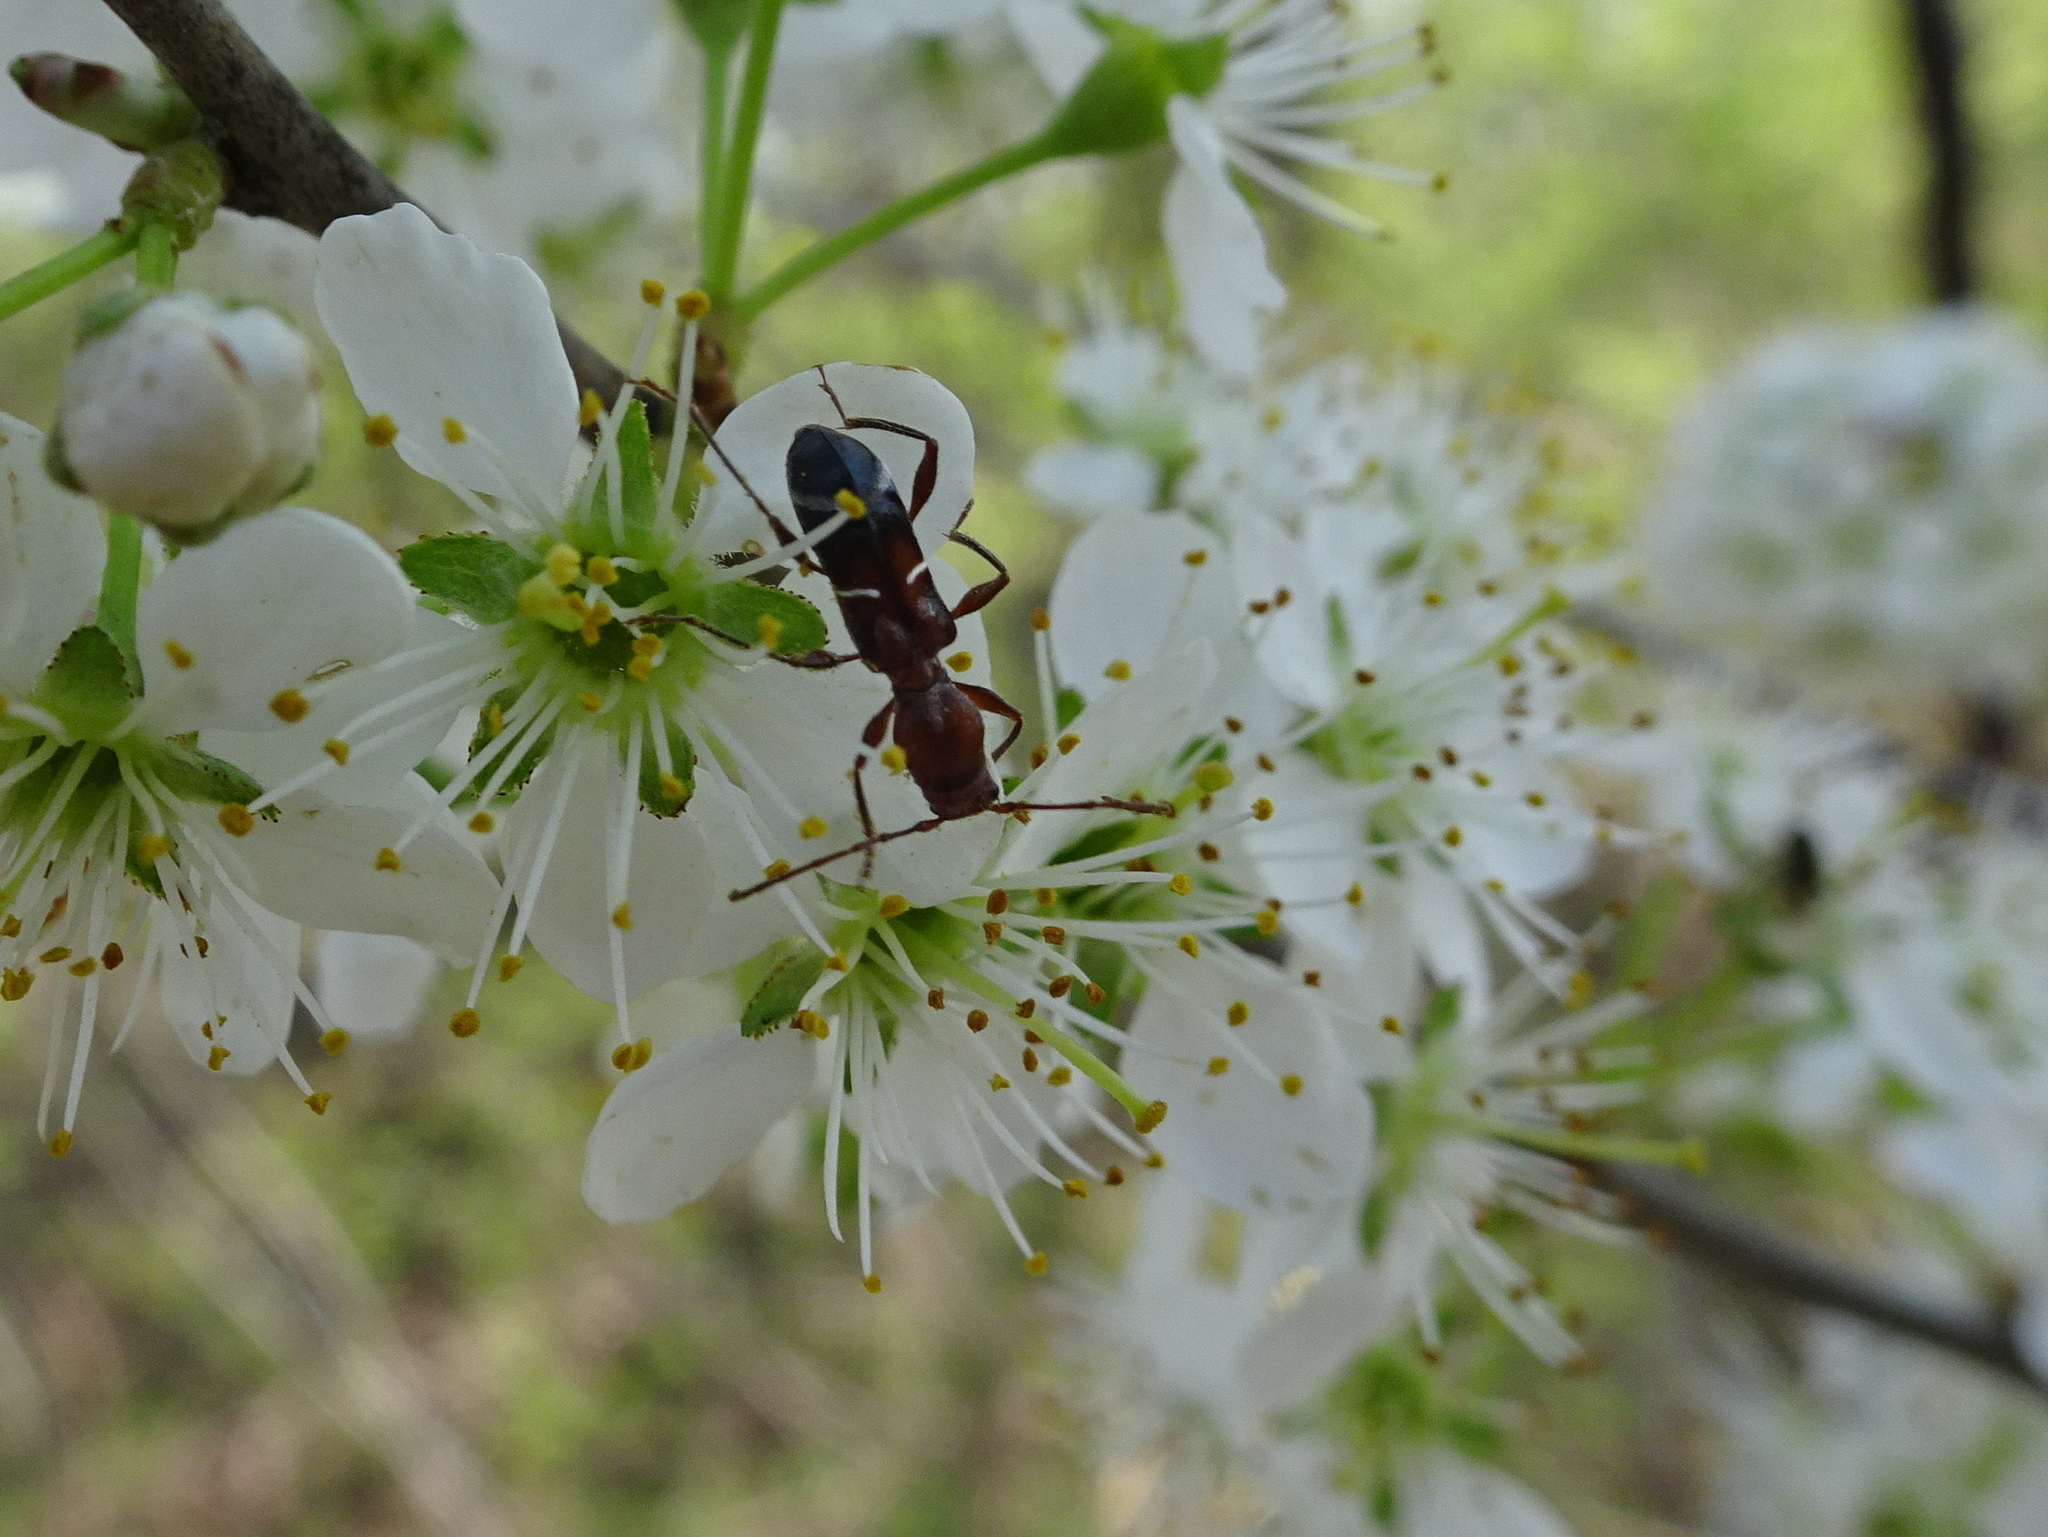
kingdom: Animalia
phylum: Arthropoda
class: Insecta
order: Coleoptera
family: Cerambycidae
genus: Euderces
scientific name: Euderces pini
